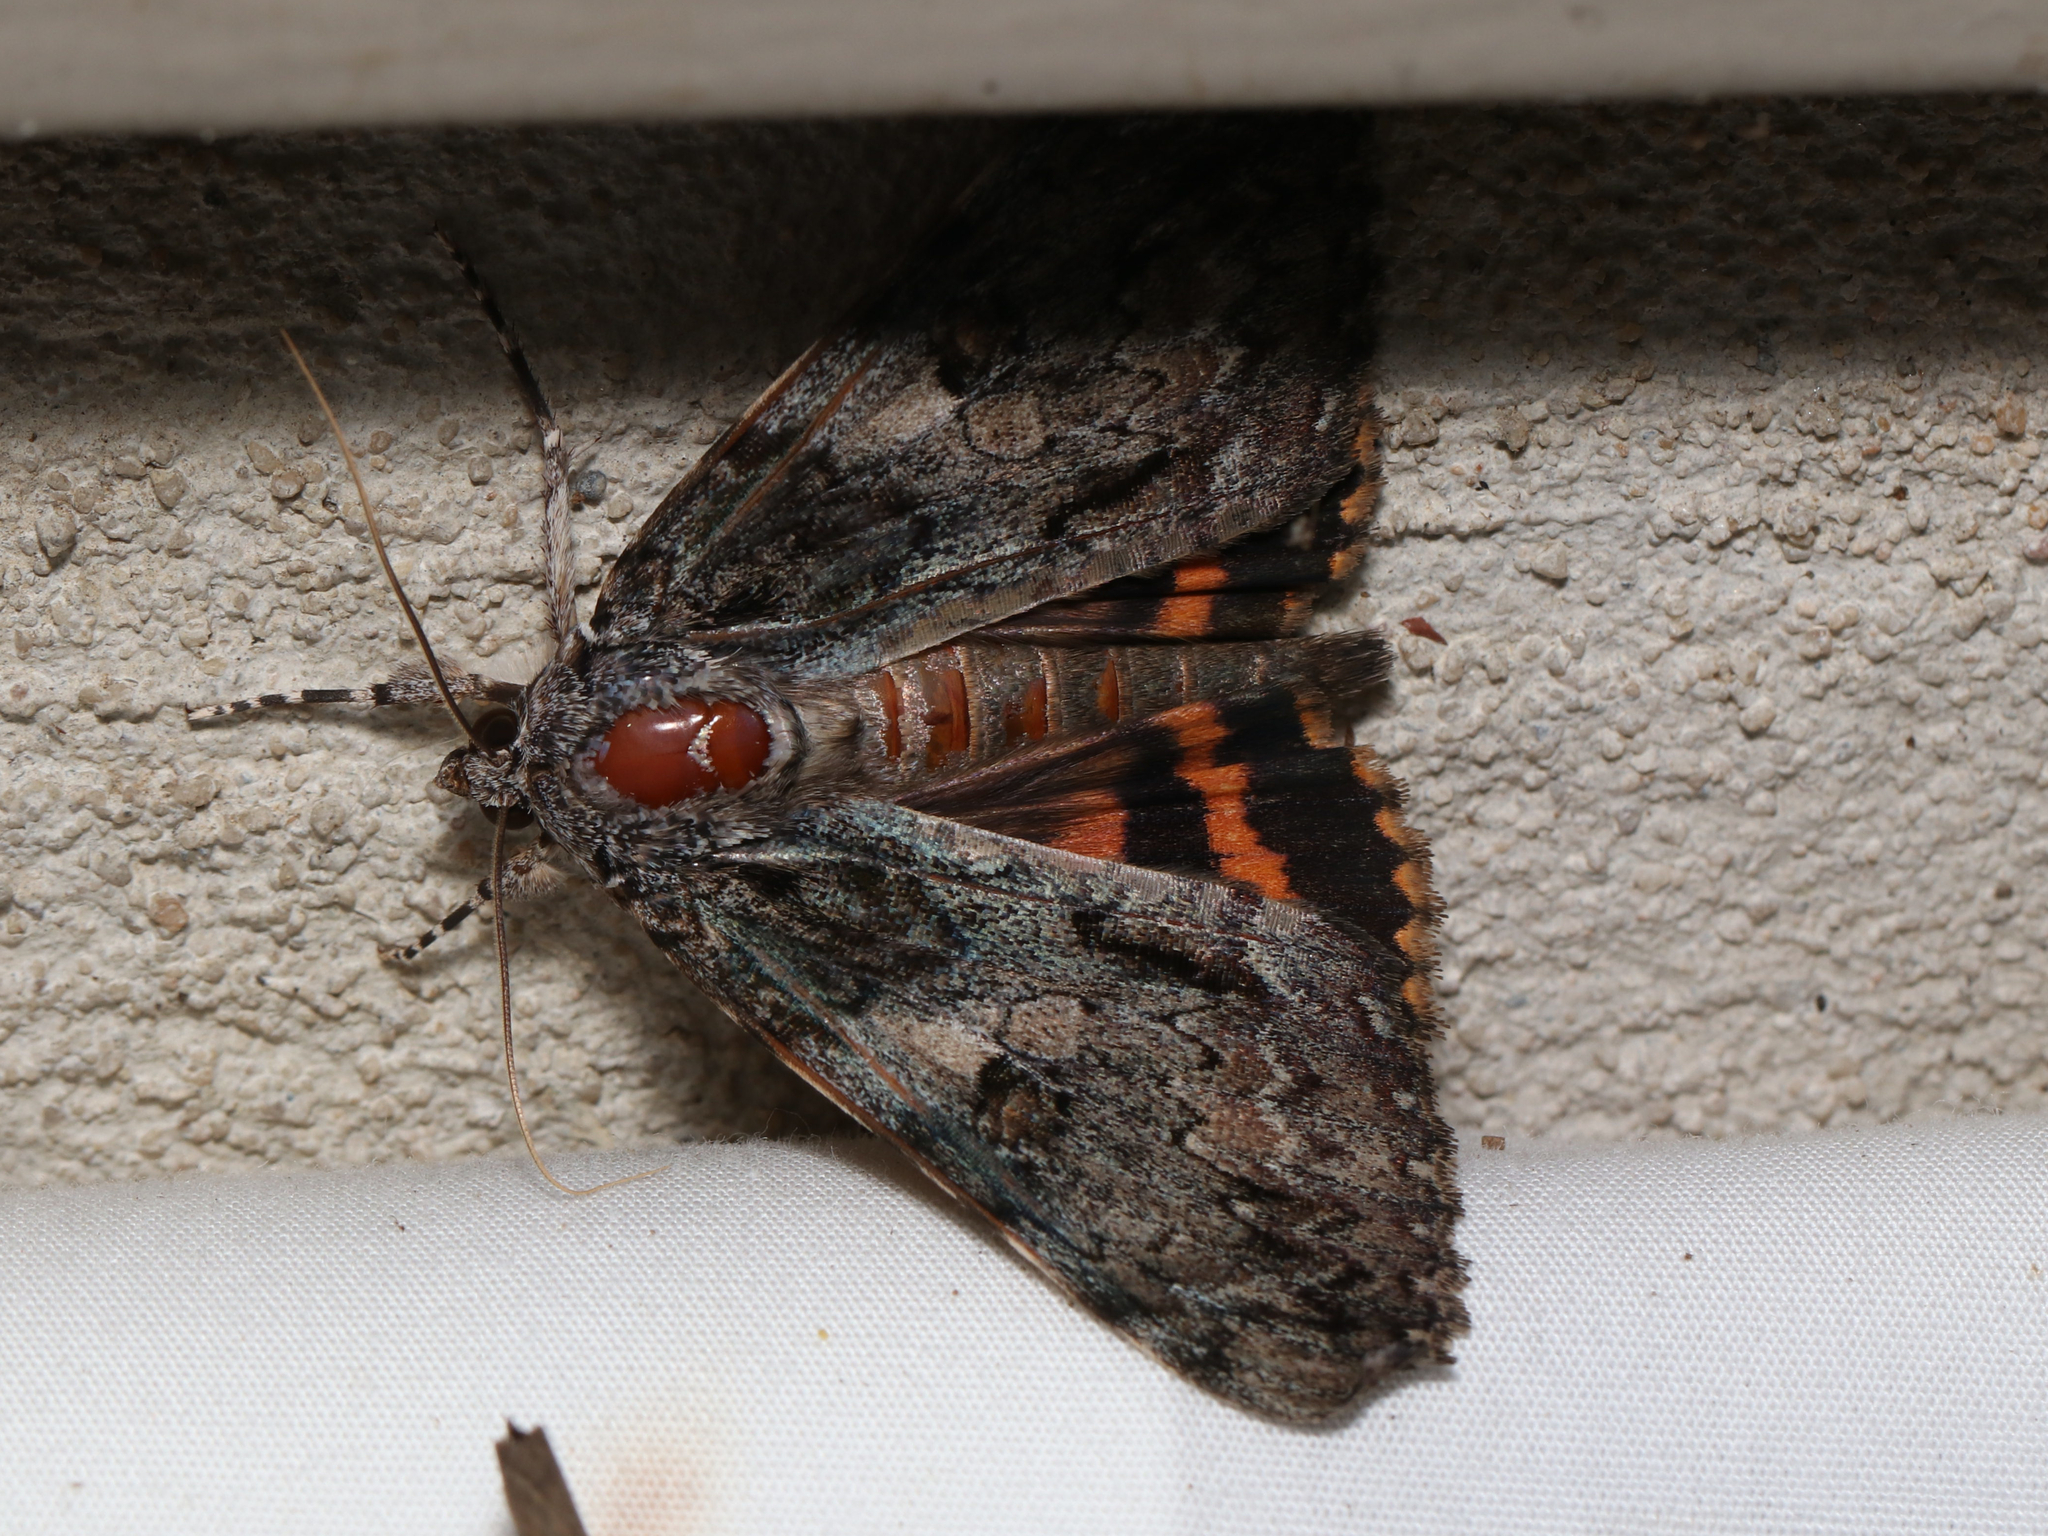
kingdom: Animalia
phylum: Arthropoda
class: Insecta
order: Lepidoptera
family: Erebidae
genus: Catocala
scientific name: Catocala palaeogama
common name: Oldwife underwing
